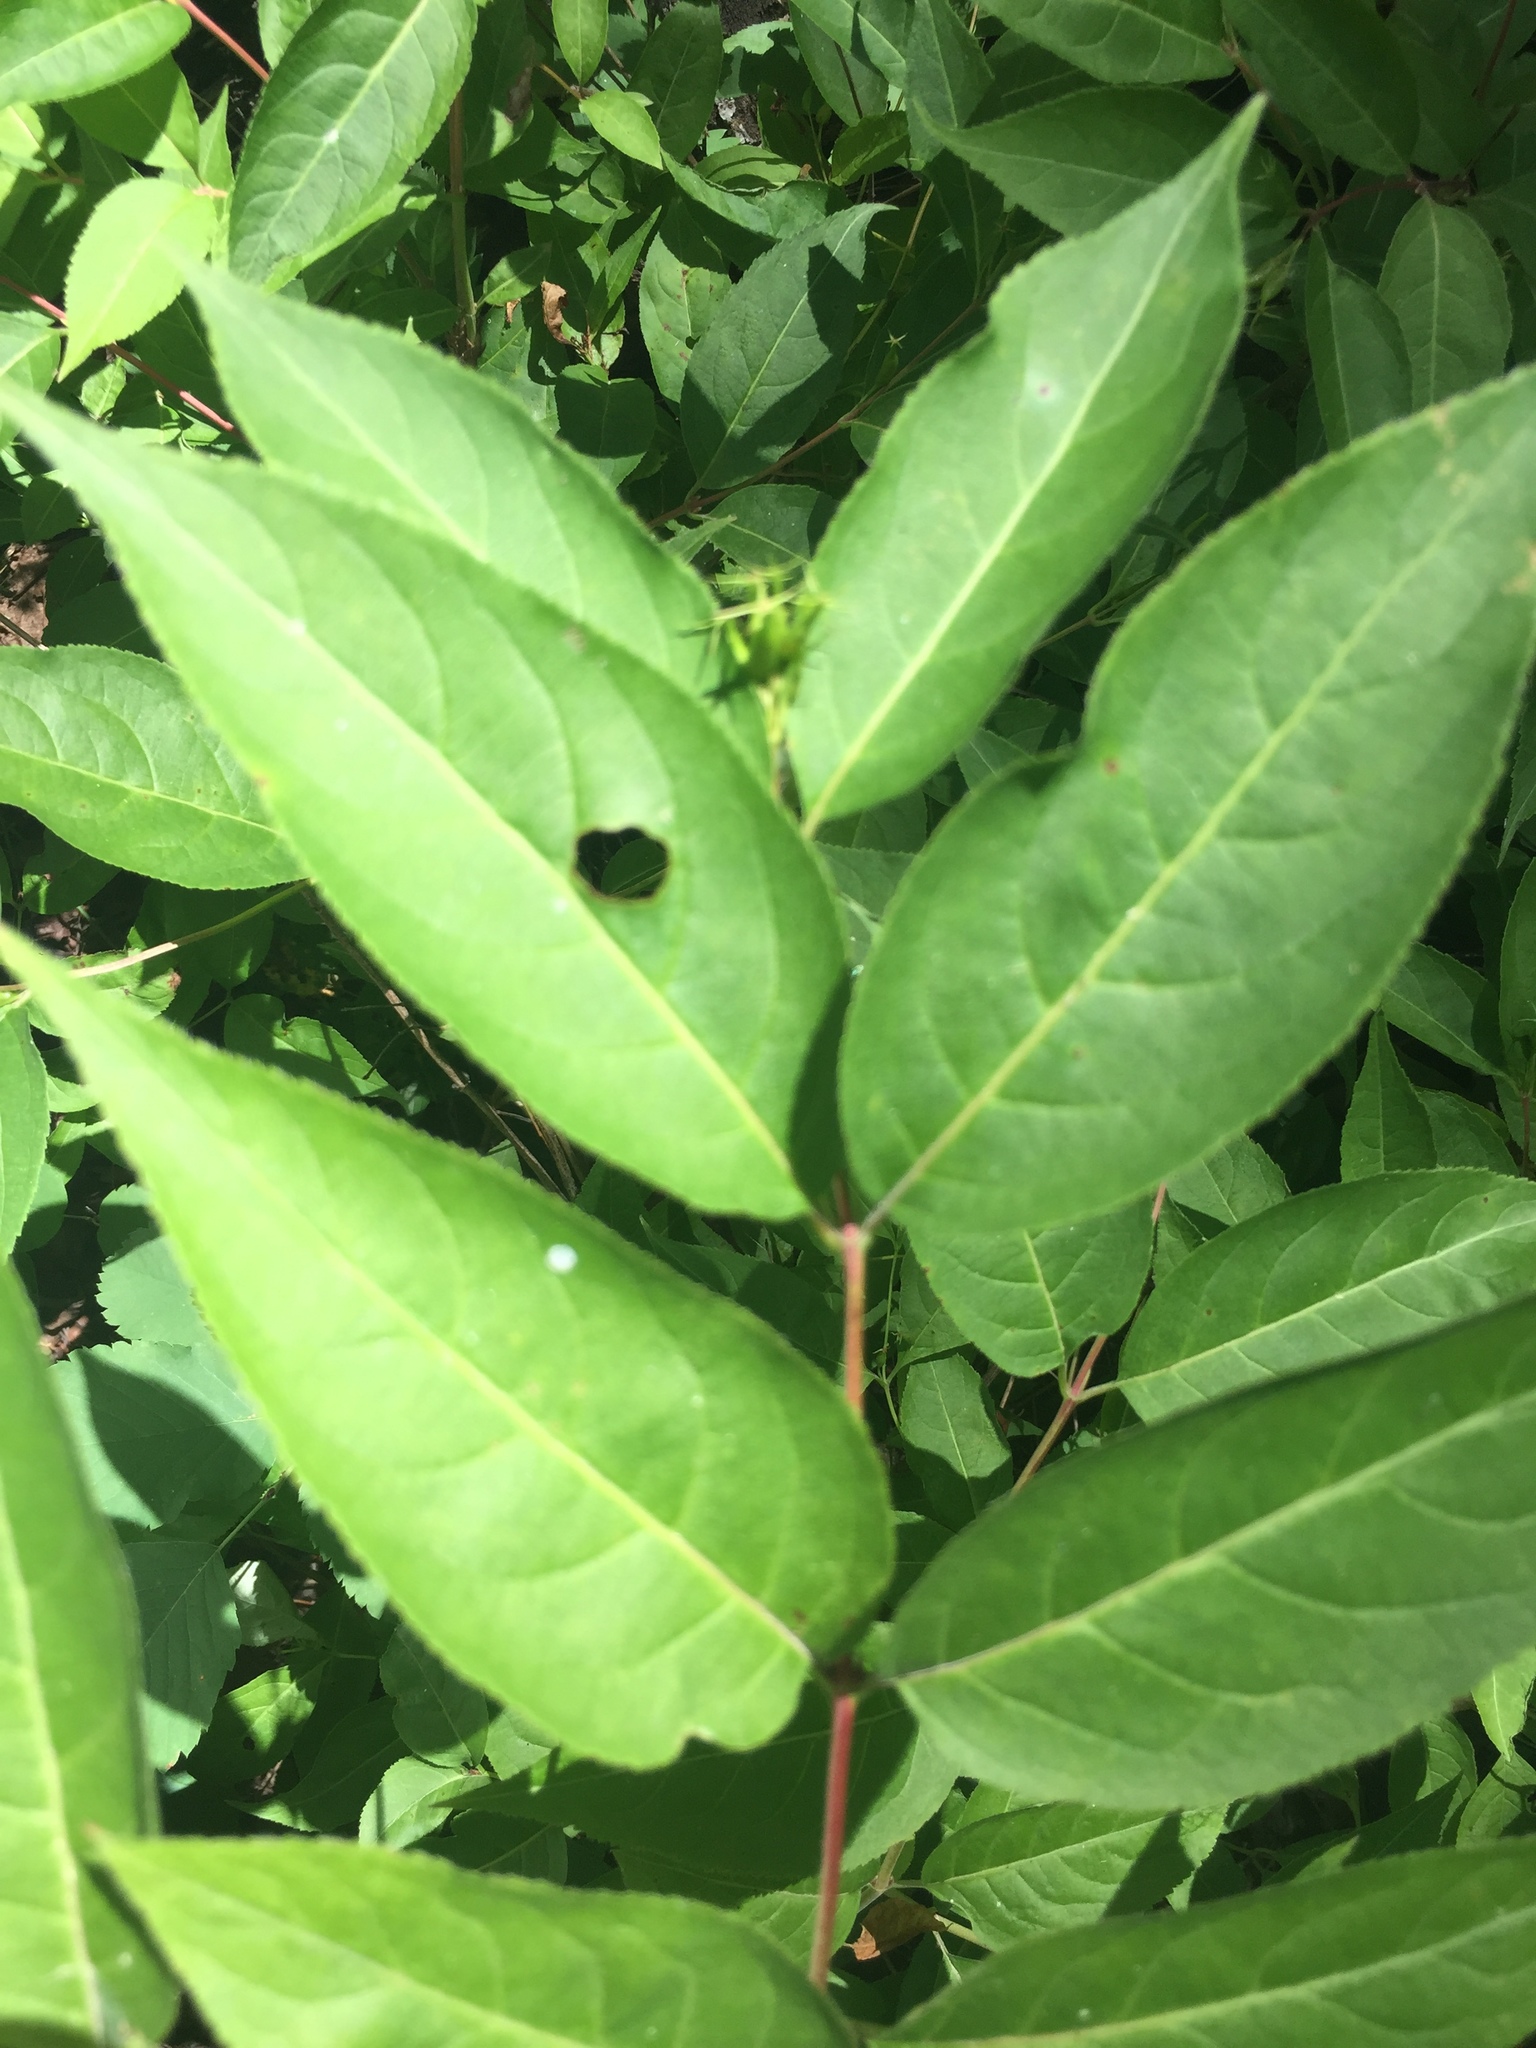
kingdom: Plantae
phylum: Tracheophyta
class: Magnoliopsida
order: Dipsacales
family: Caprifoliaceae
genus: Diervilla
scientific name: Diervilla lonicera
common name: Bush-honeysuckle
